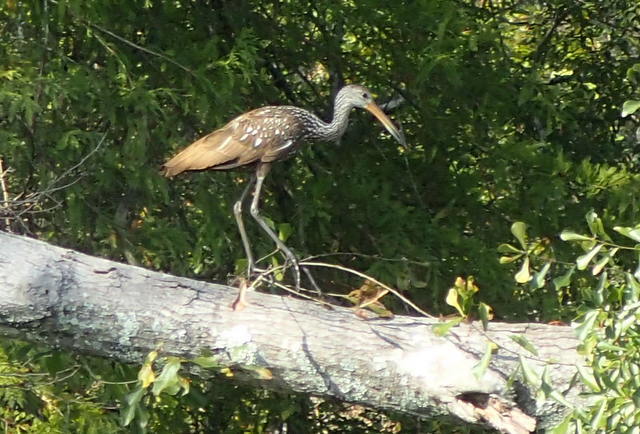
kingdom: Animalia
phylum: Chordata
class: Aves
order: Gruiformes
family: Aramidae
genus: Aramus
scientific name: Aramus guarauna
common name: Limpkin
